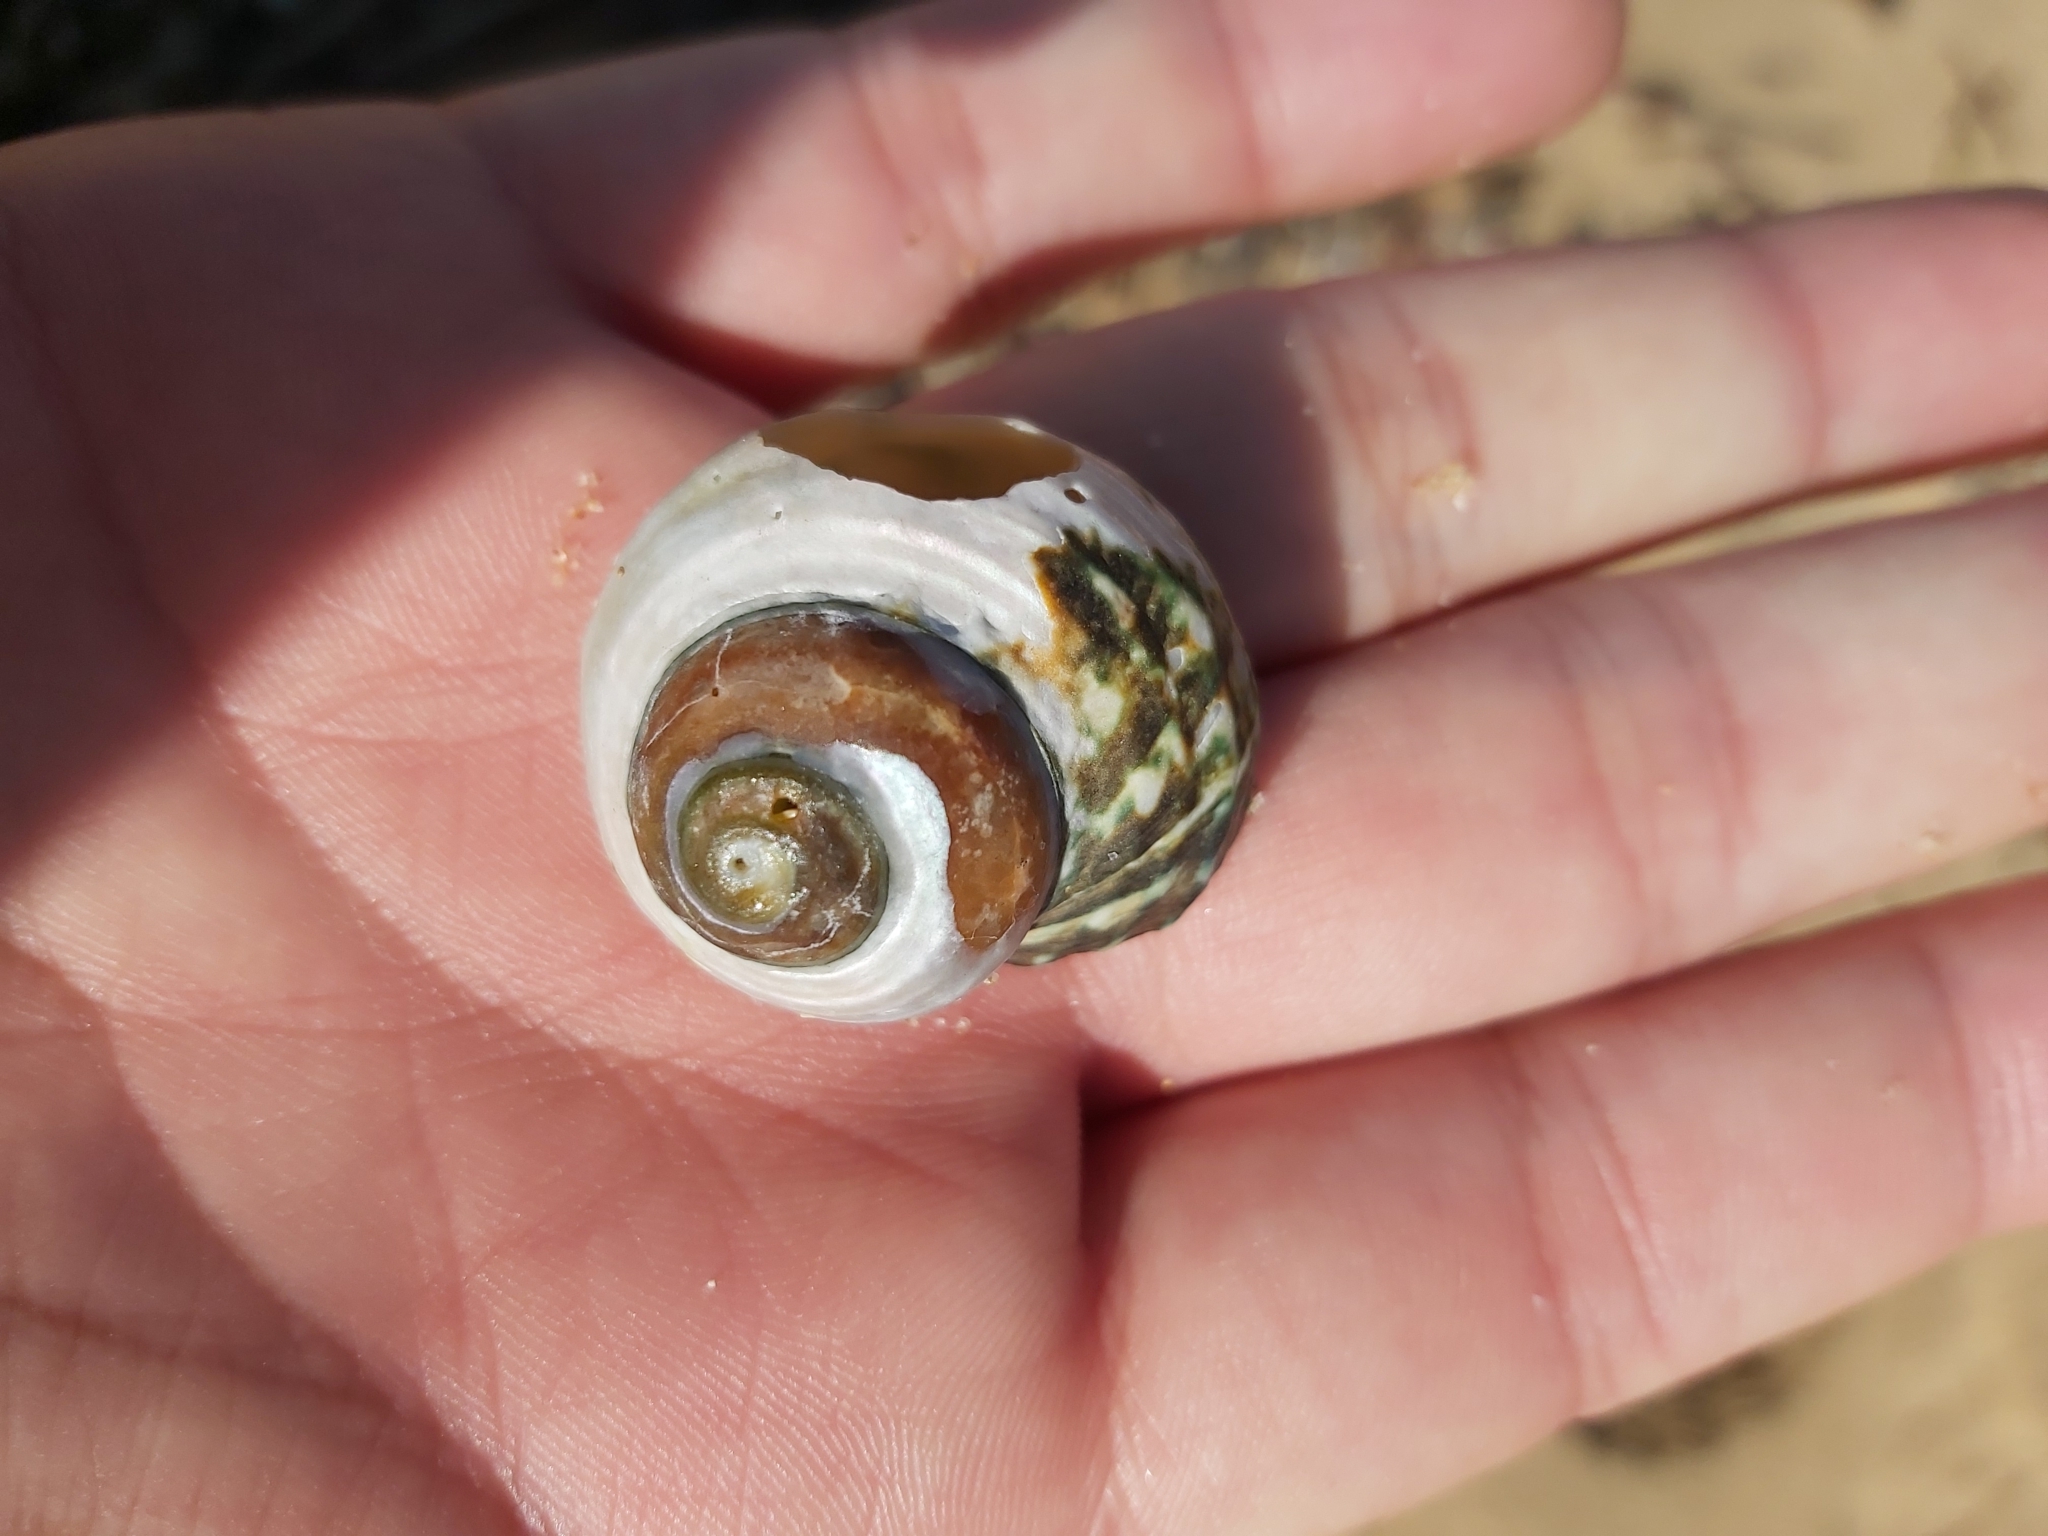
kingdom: Animalia
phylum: Mollusca
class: Gastropoda
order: Trochida
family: Turbinidae
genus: Lunella
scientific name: Lunella undulata
